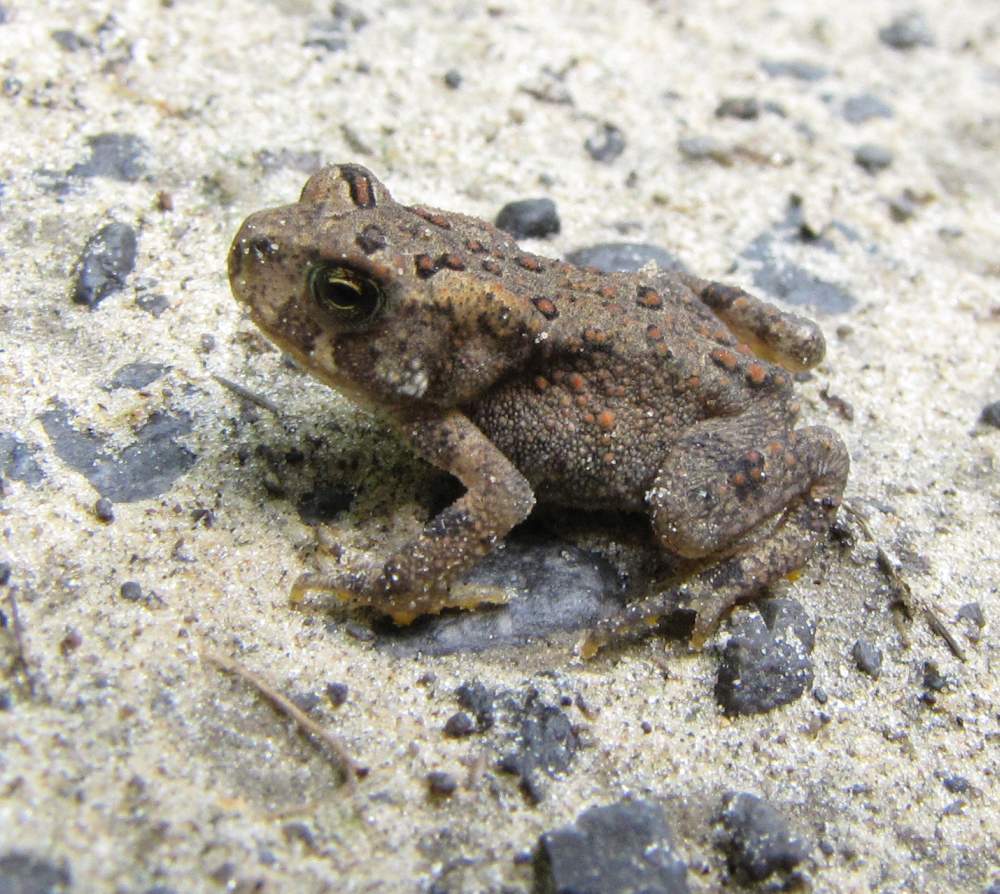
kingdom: Animalia
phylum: Chordata
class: Amphibia
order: Anura
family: Bufonidae
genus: Anaxyrus
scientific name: Anaxyrus americanus
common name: American toad
